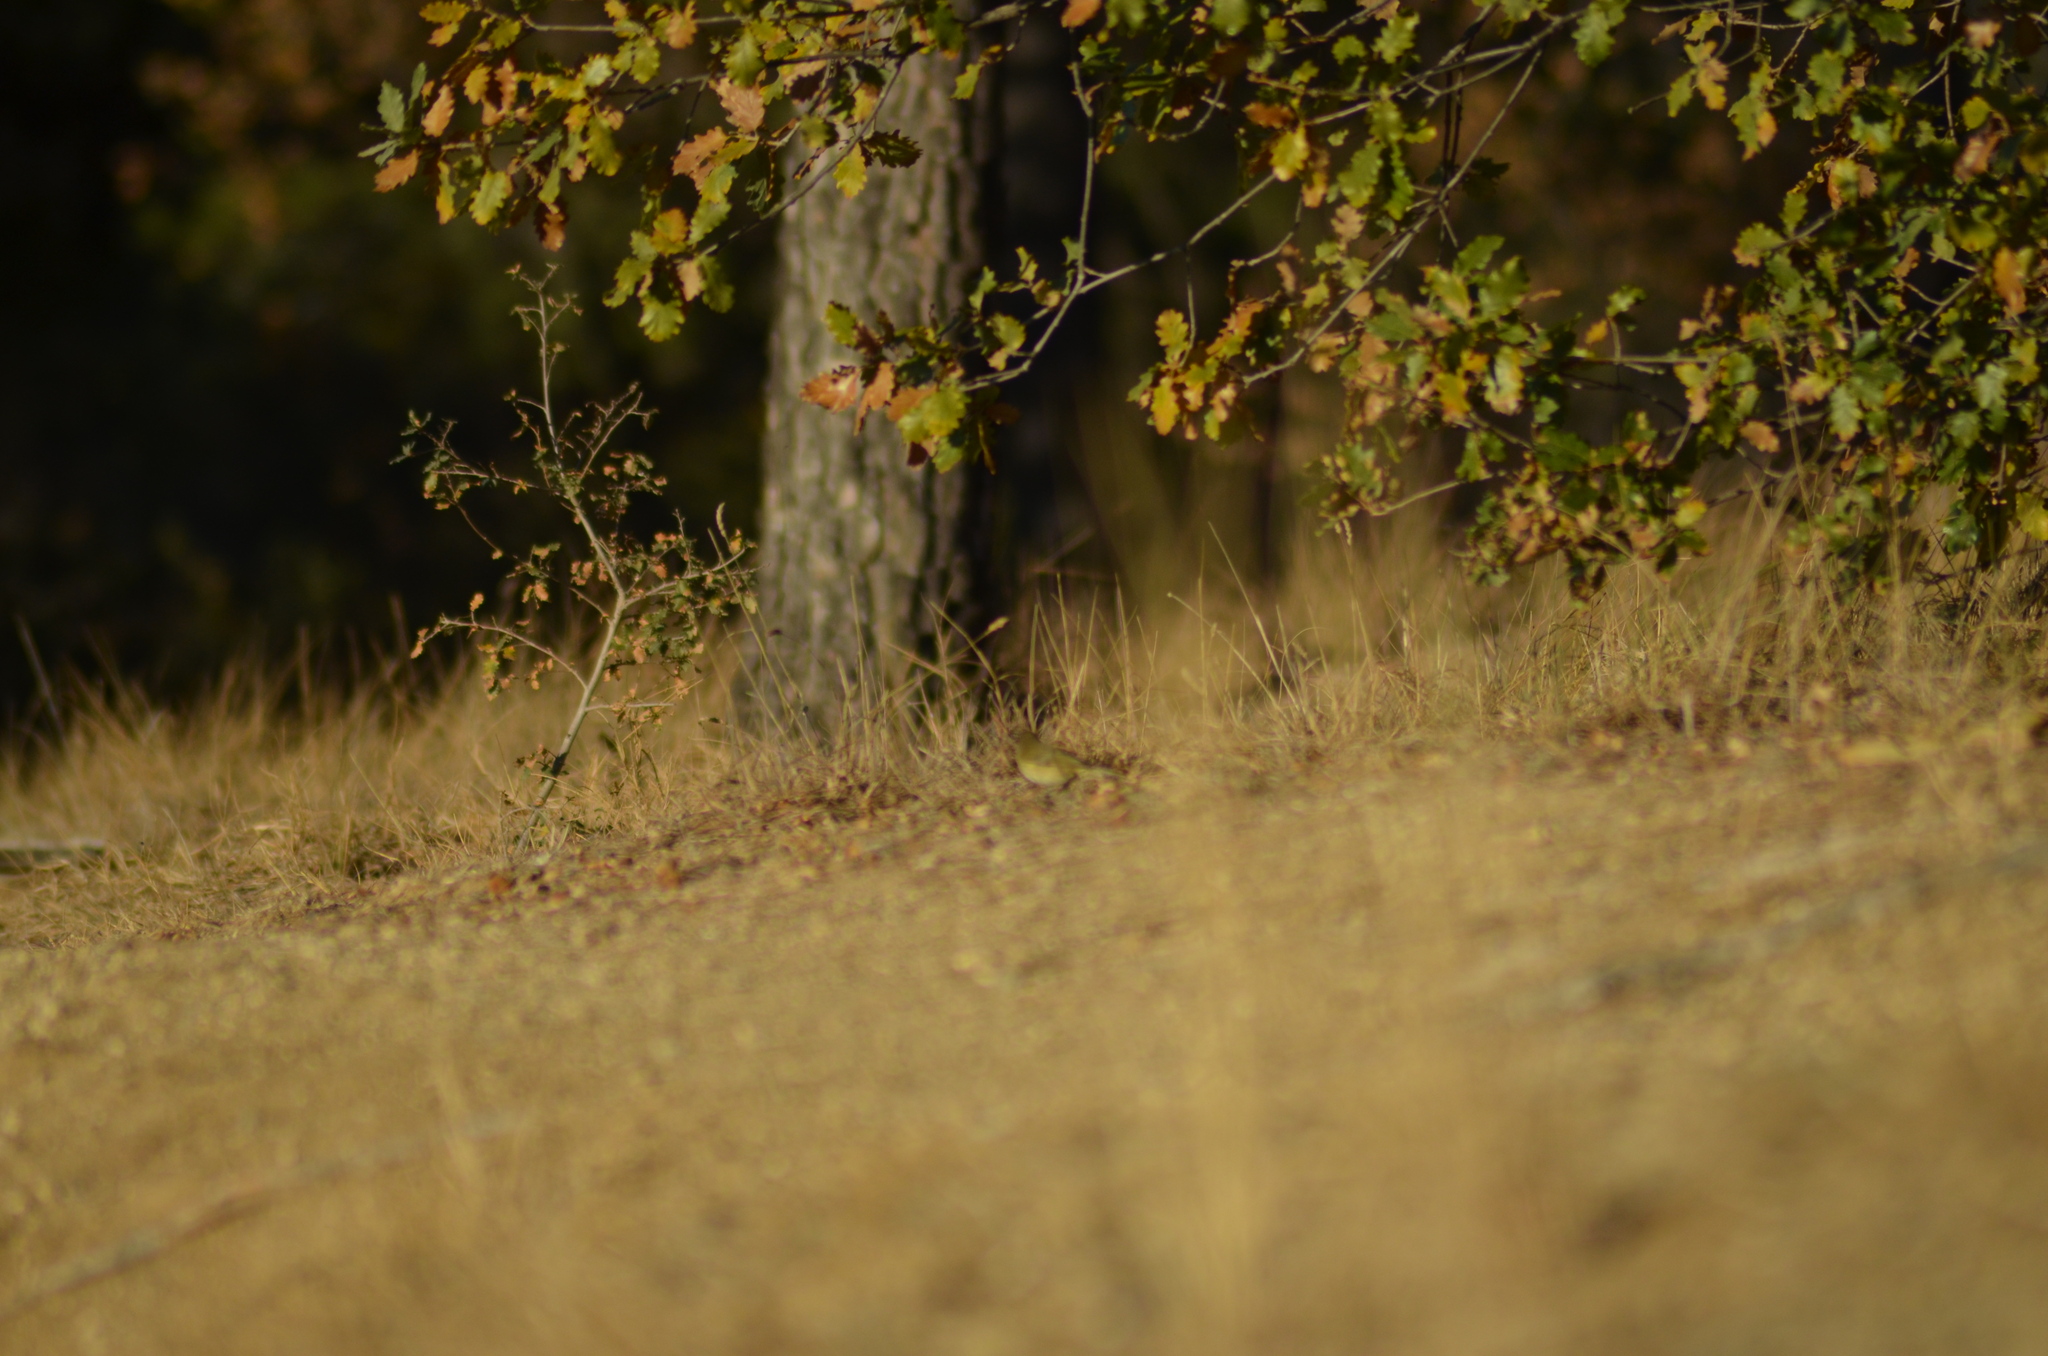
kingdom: Animalia
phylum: Chordata
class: Aves
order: Passeriformes
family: Phylloscopidae
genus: Phylloscopus
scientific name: Phylloscopus collybita
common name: Common chiffchaff
